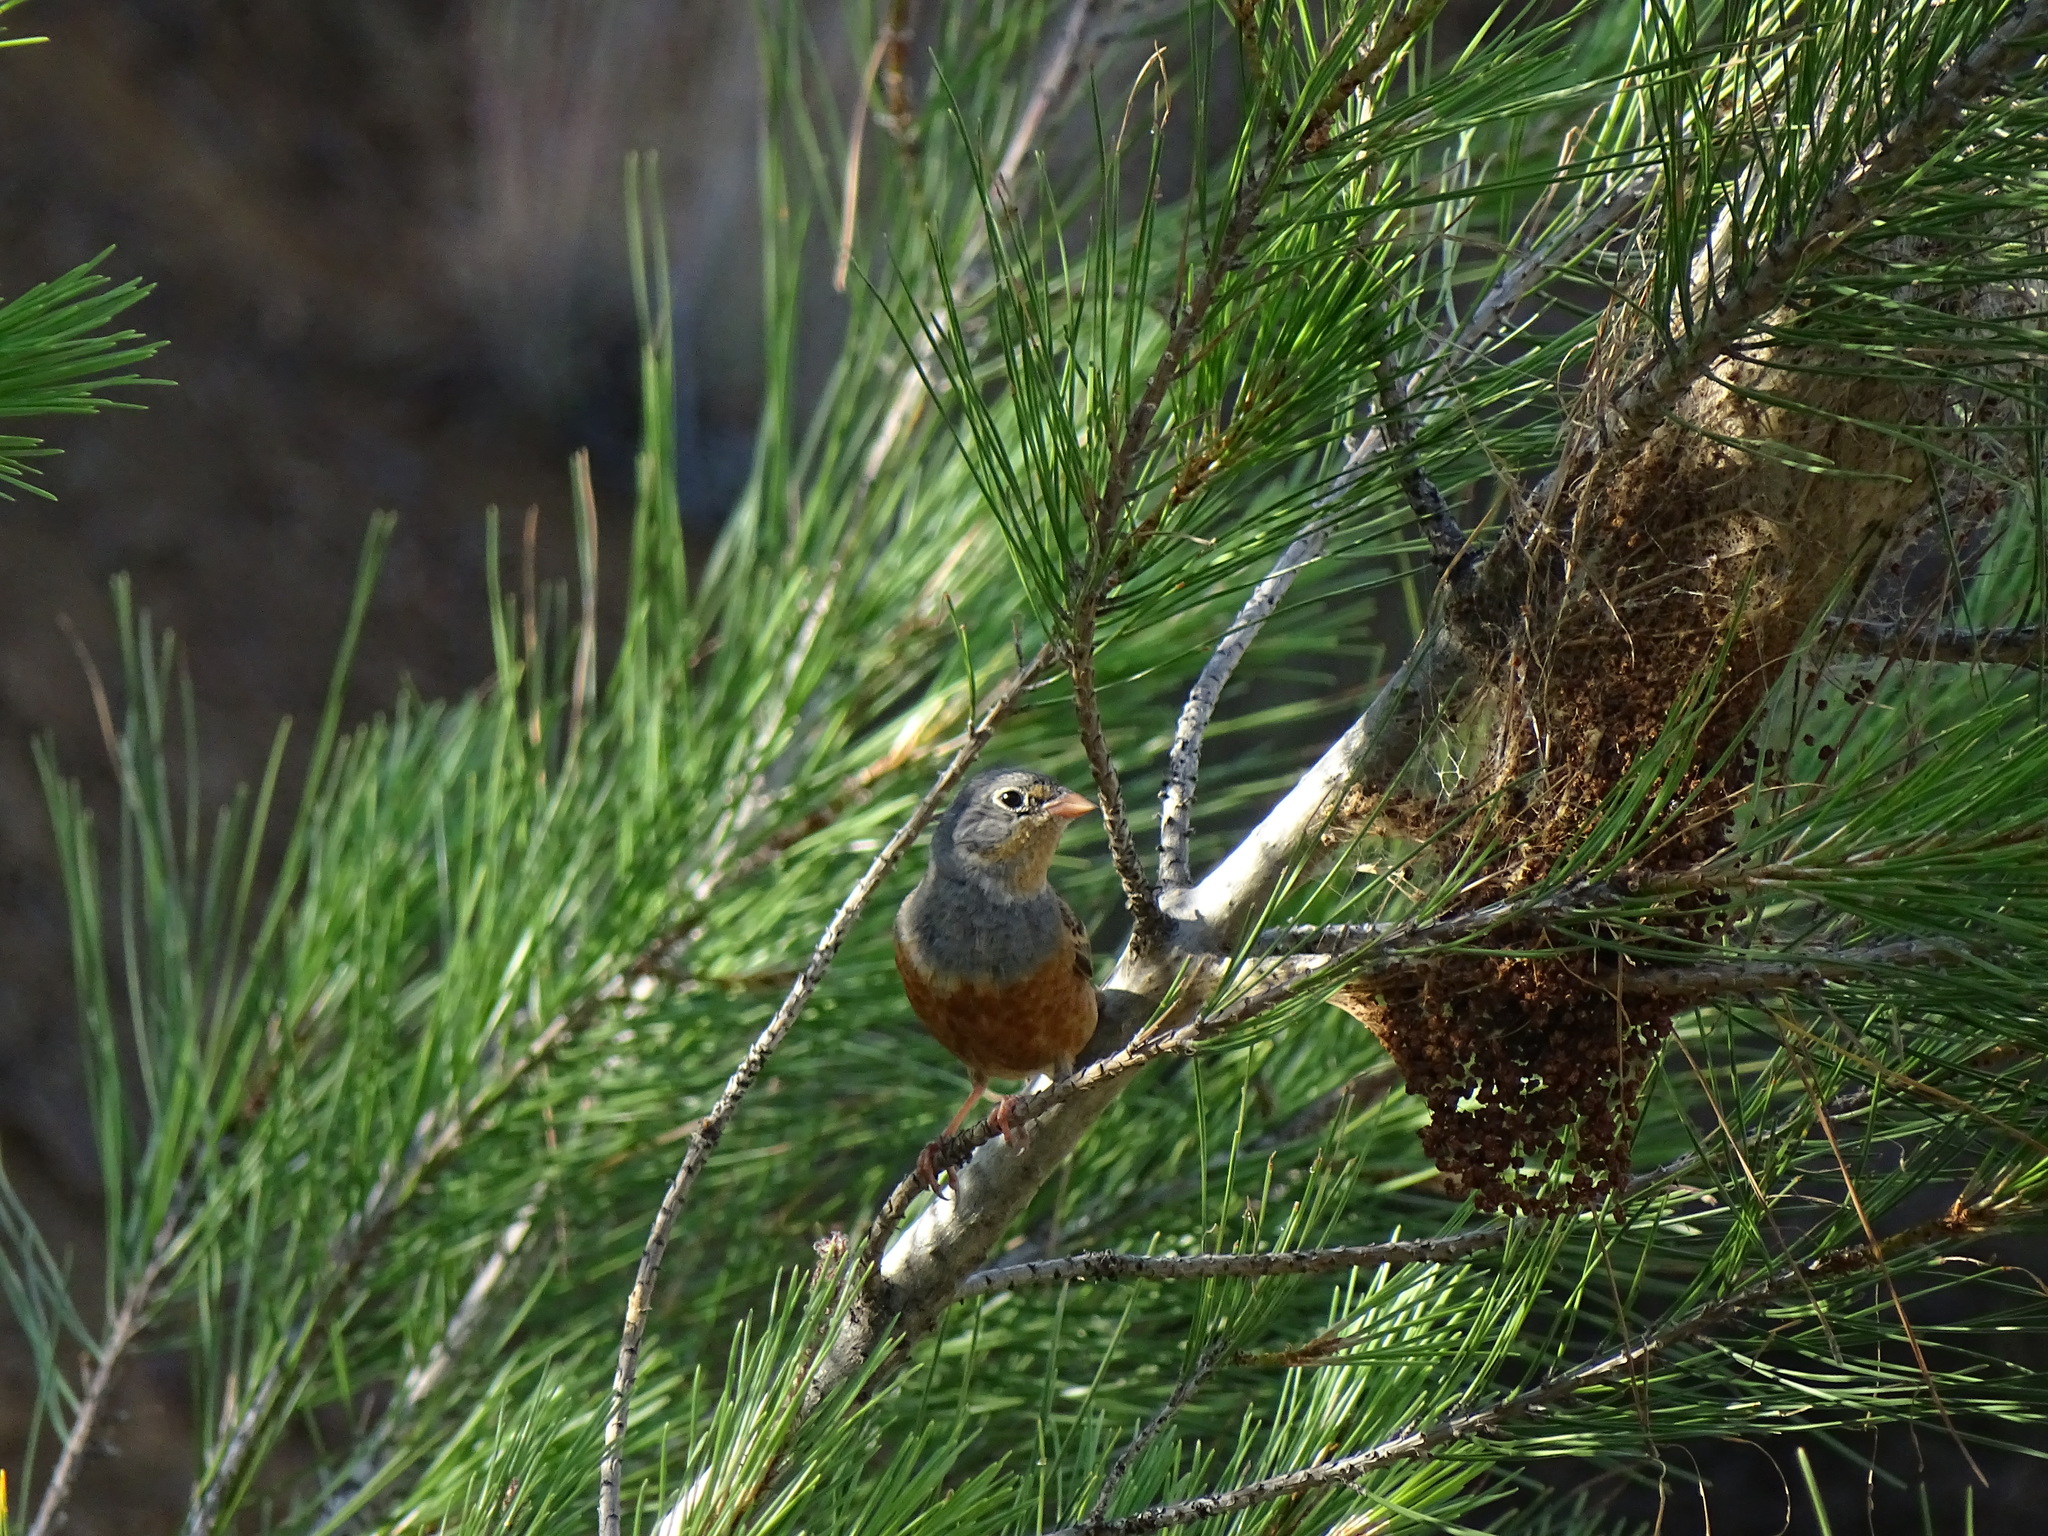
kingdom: Animalia
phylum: Chordata
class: Aves
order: Passeriformes
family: Emberizidae
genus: Emberiza
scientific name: Emberiza caesia
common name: Cretzschmar's bunting
